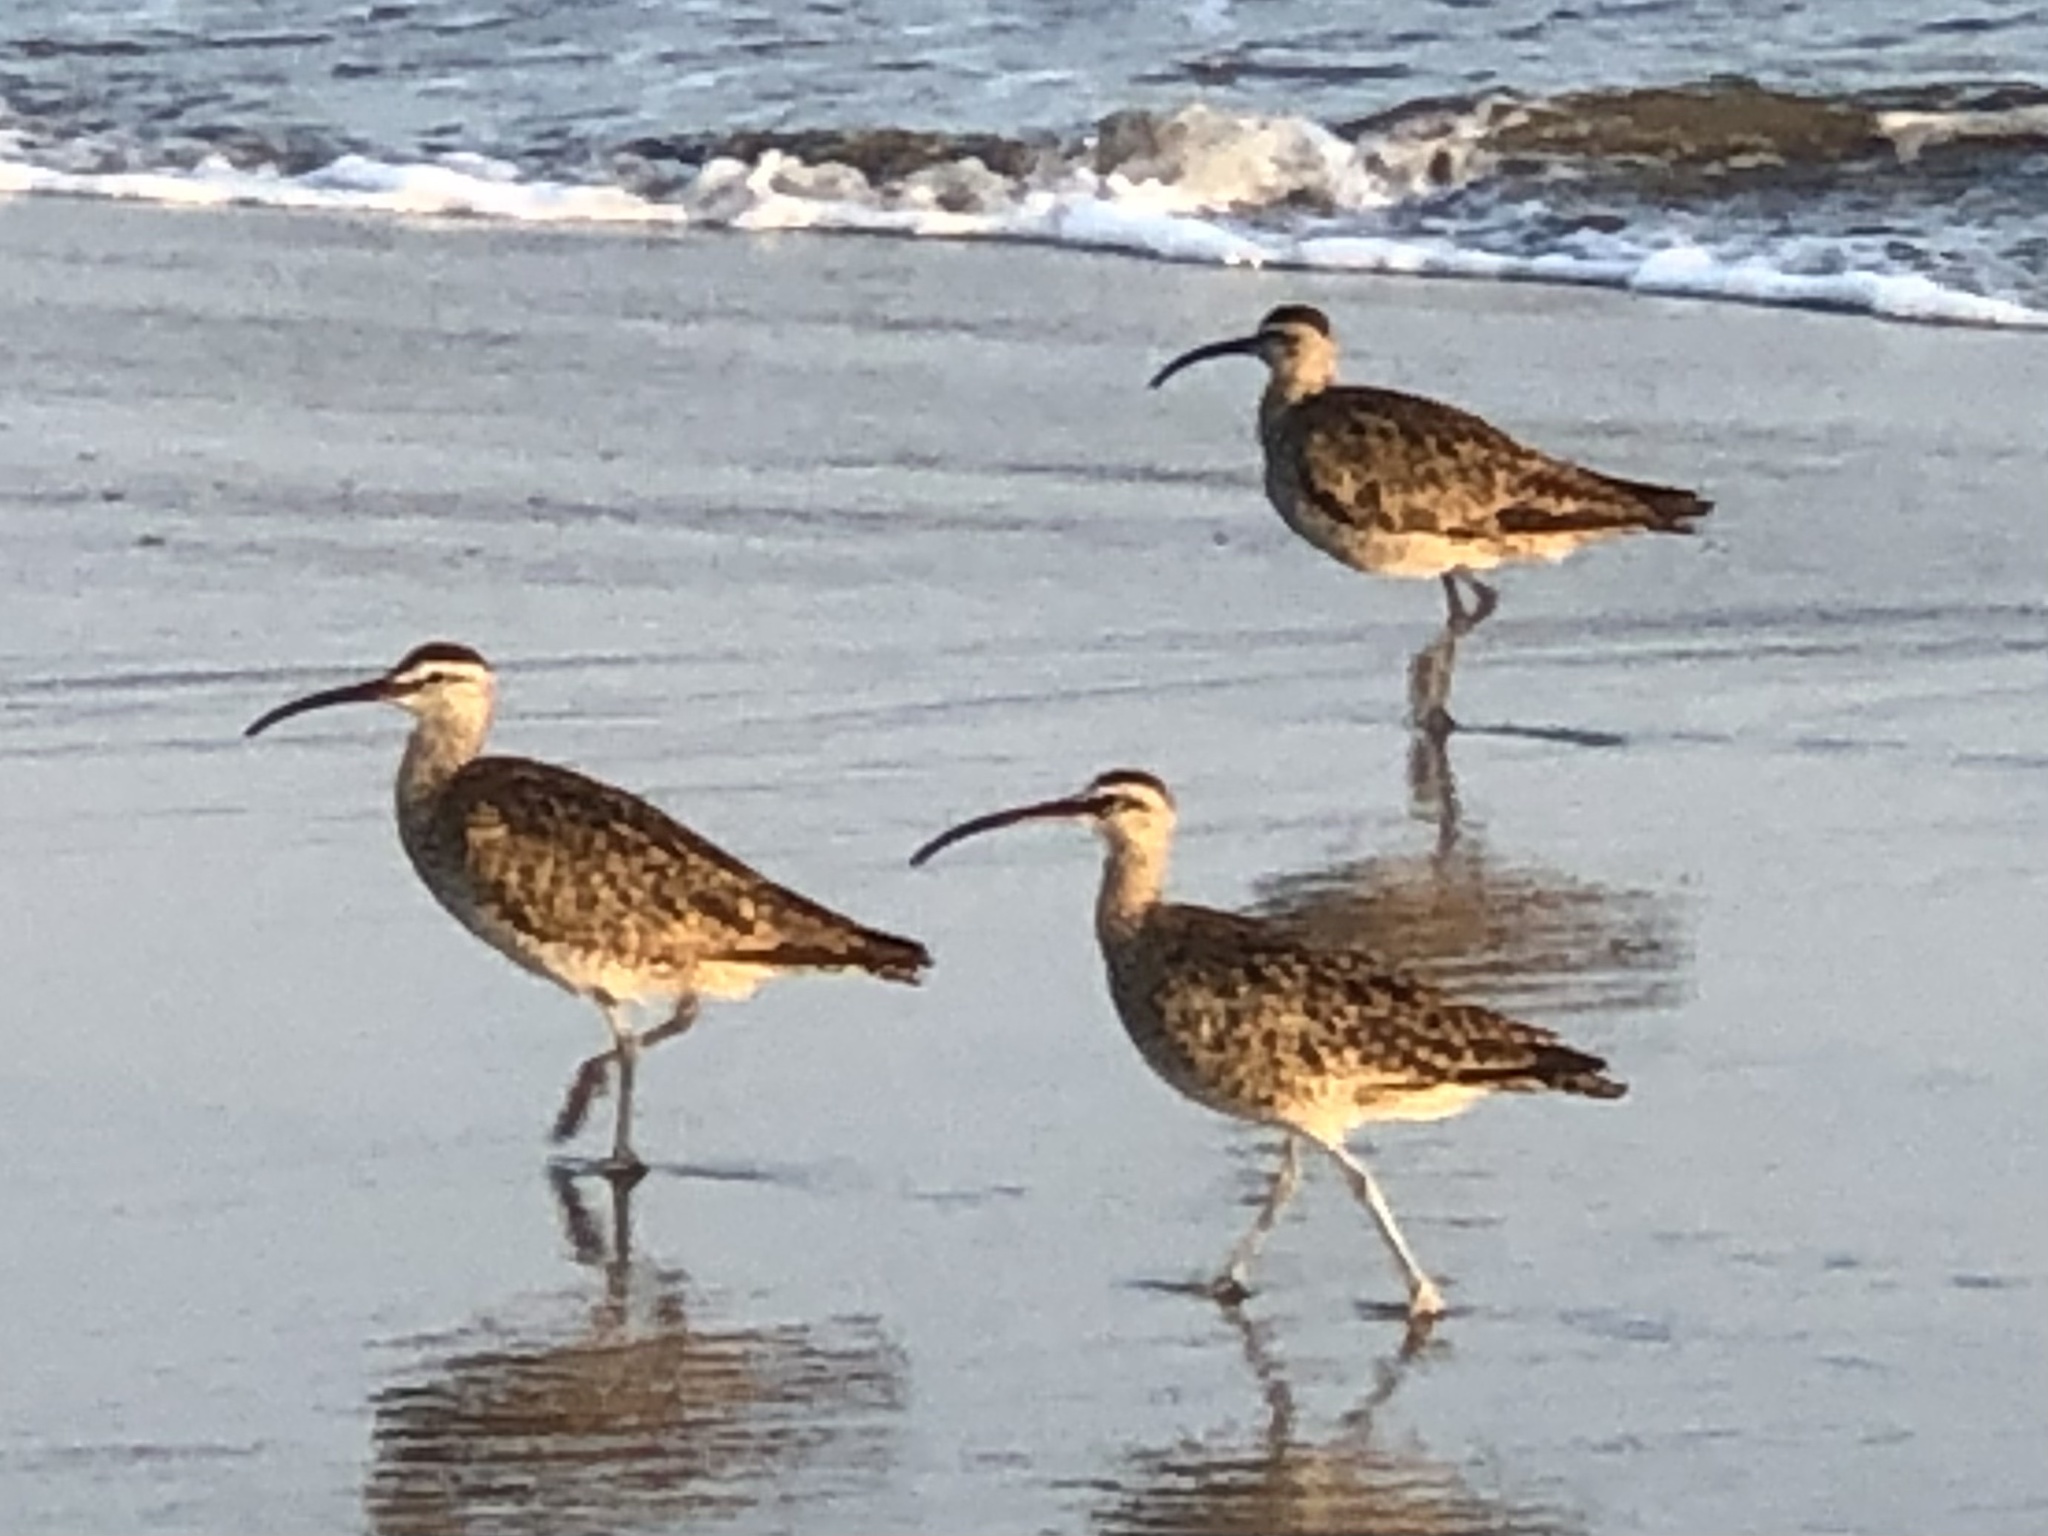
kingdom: Animalia
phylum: Chordata
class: Aves
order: Charadriiformes
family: Scolopacidae
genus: Numenius
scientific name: Numenius phaeopus
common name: Whimbrel
